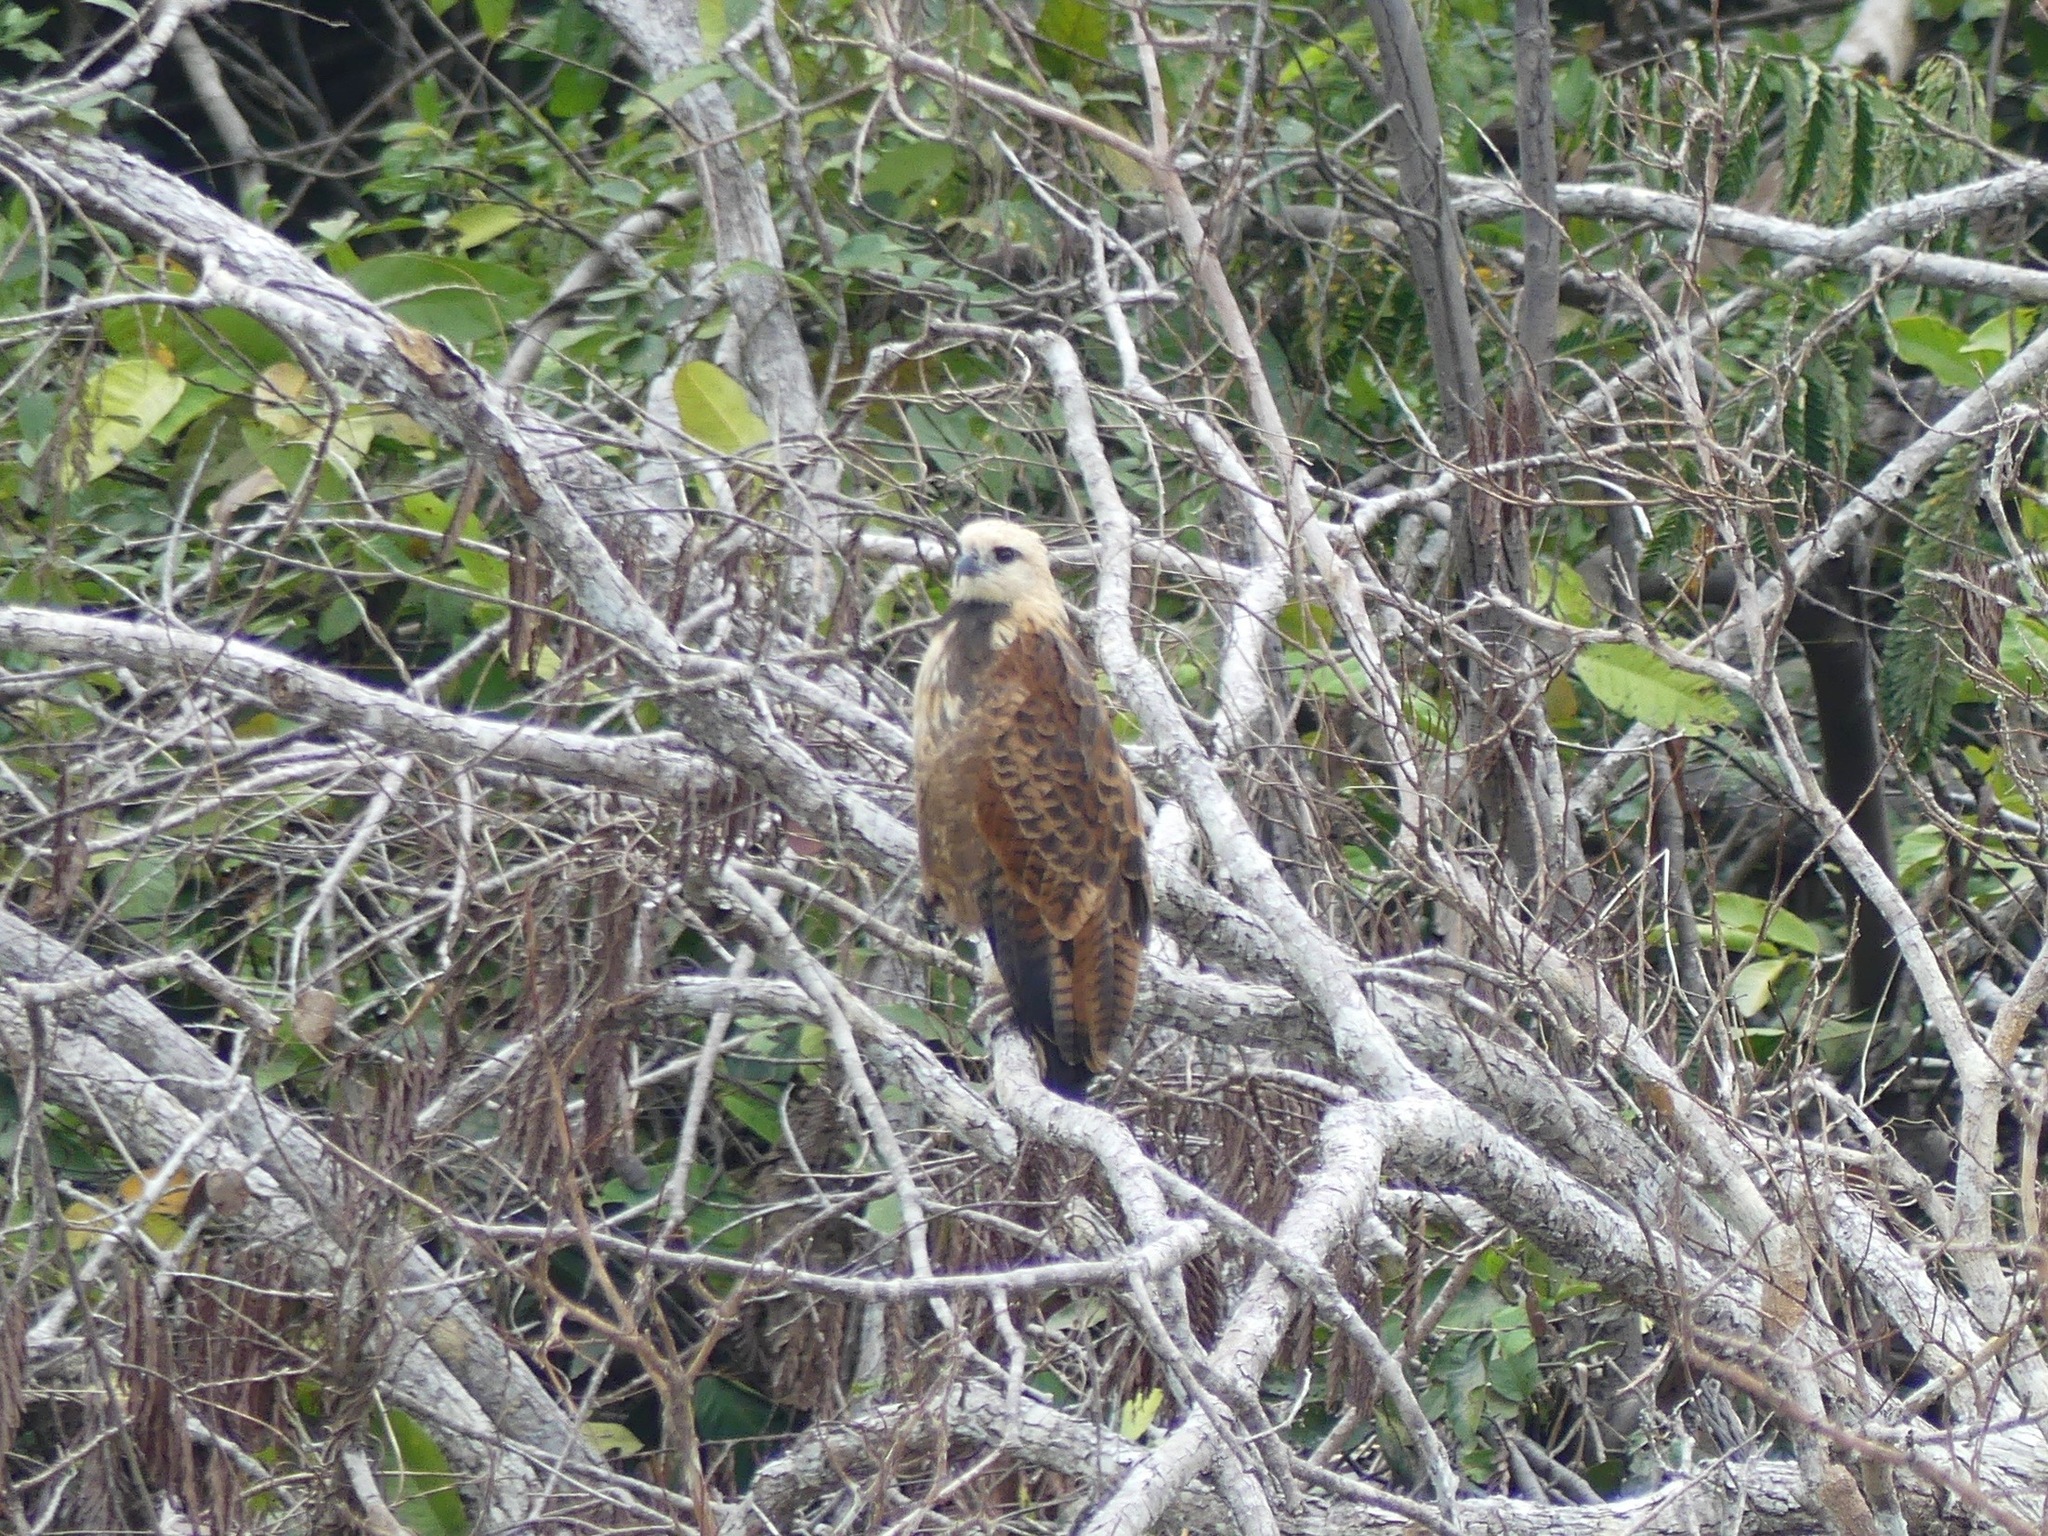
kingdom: Animalia
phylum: Chordata
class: Aves
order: Accipitriformes
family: Accipitridae
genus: Busarellus
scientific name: Busarellus nigricollis
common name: Black-collared hawk
